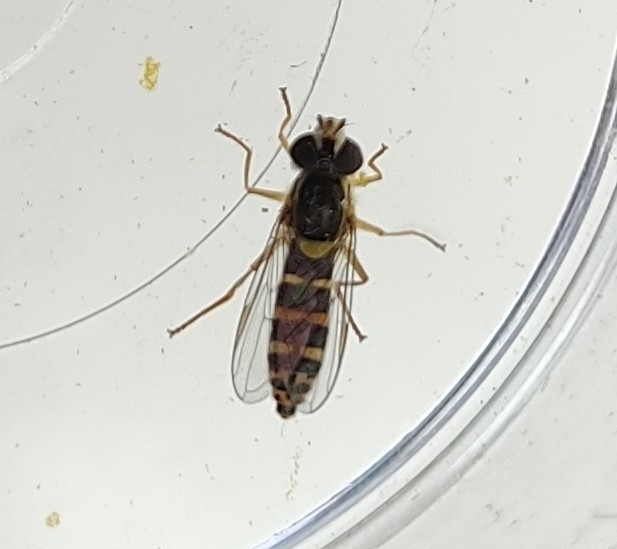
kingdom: Animalia
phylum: Arthropoda
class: Insecta
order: Diptera
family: Syrphidae
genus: Sphaerophoria
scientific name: Sphaerophoria
